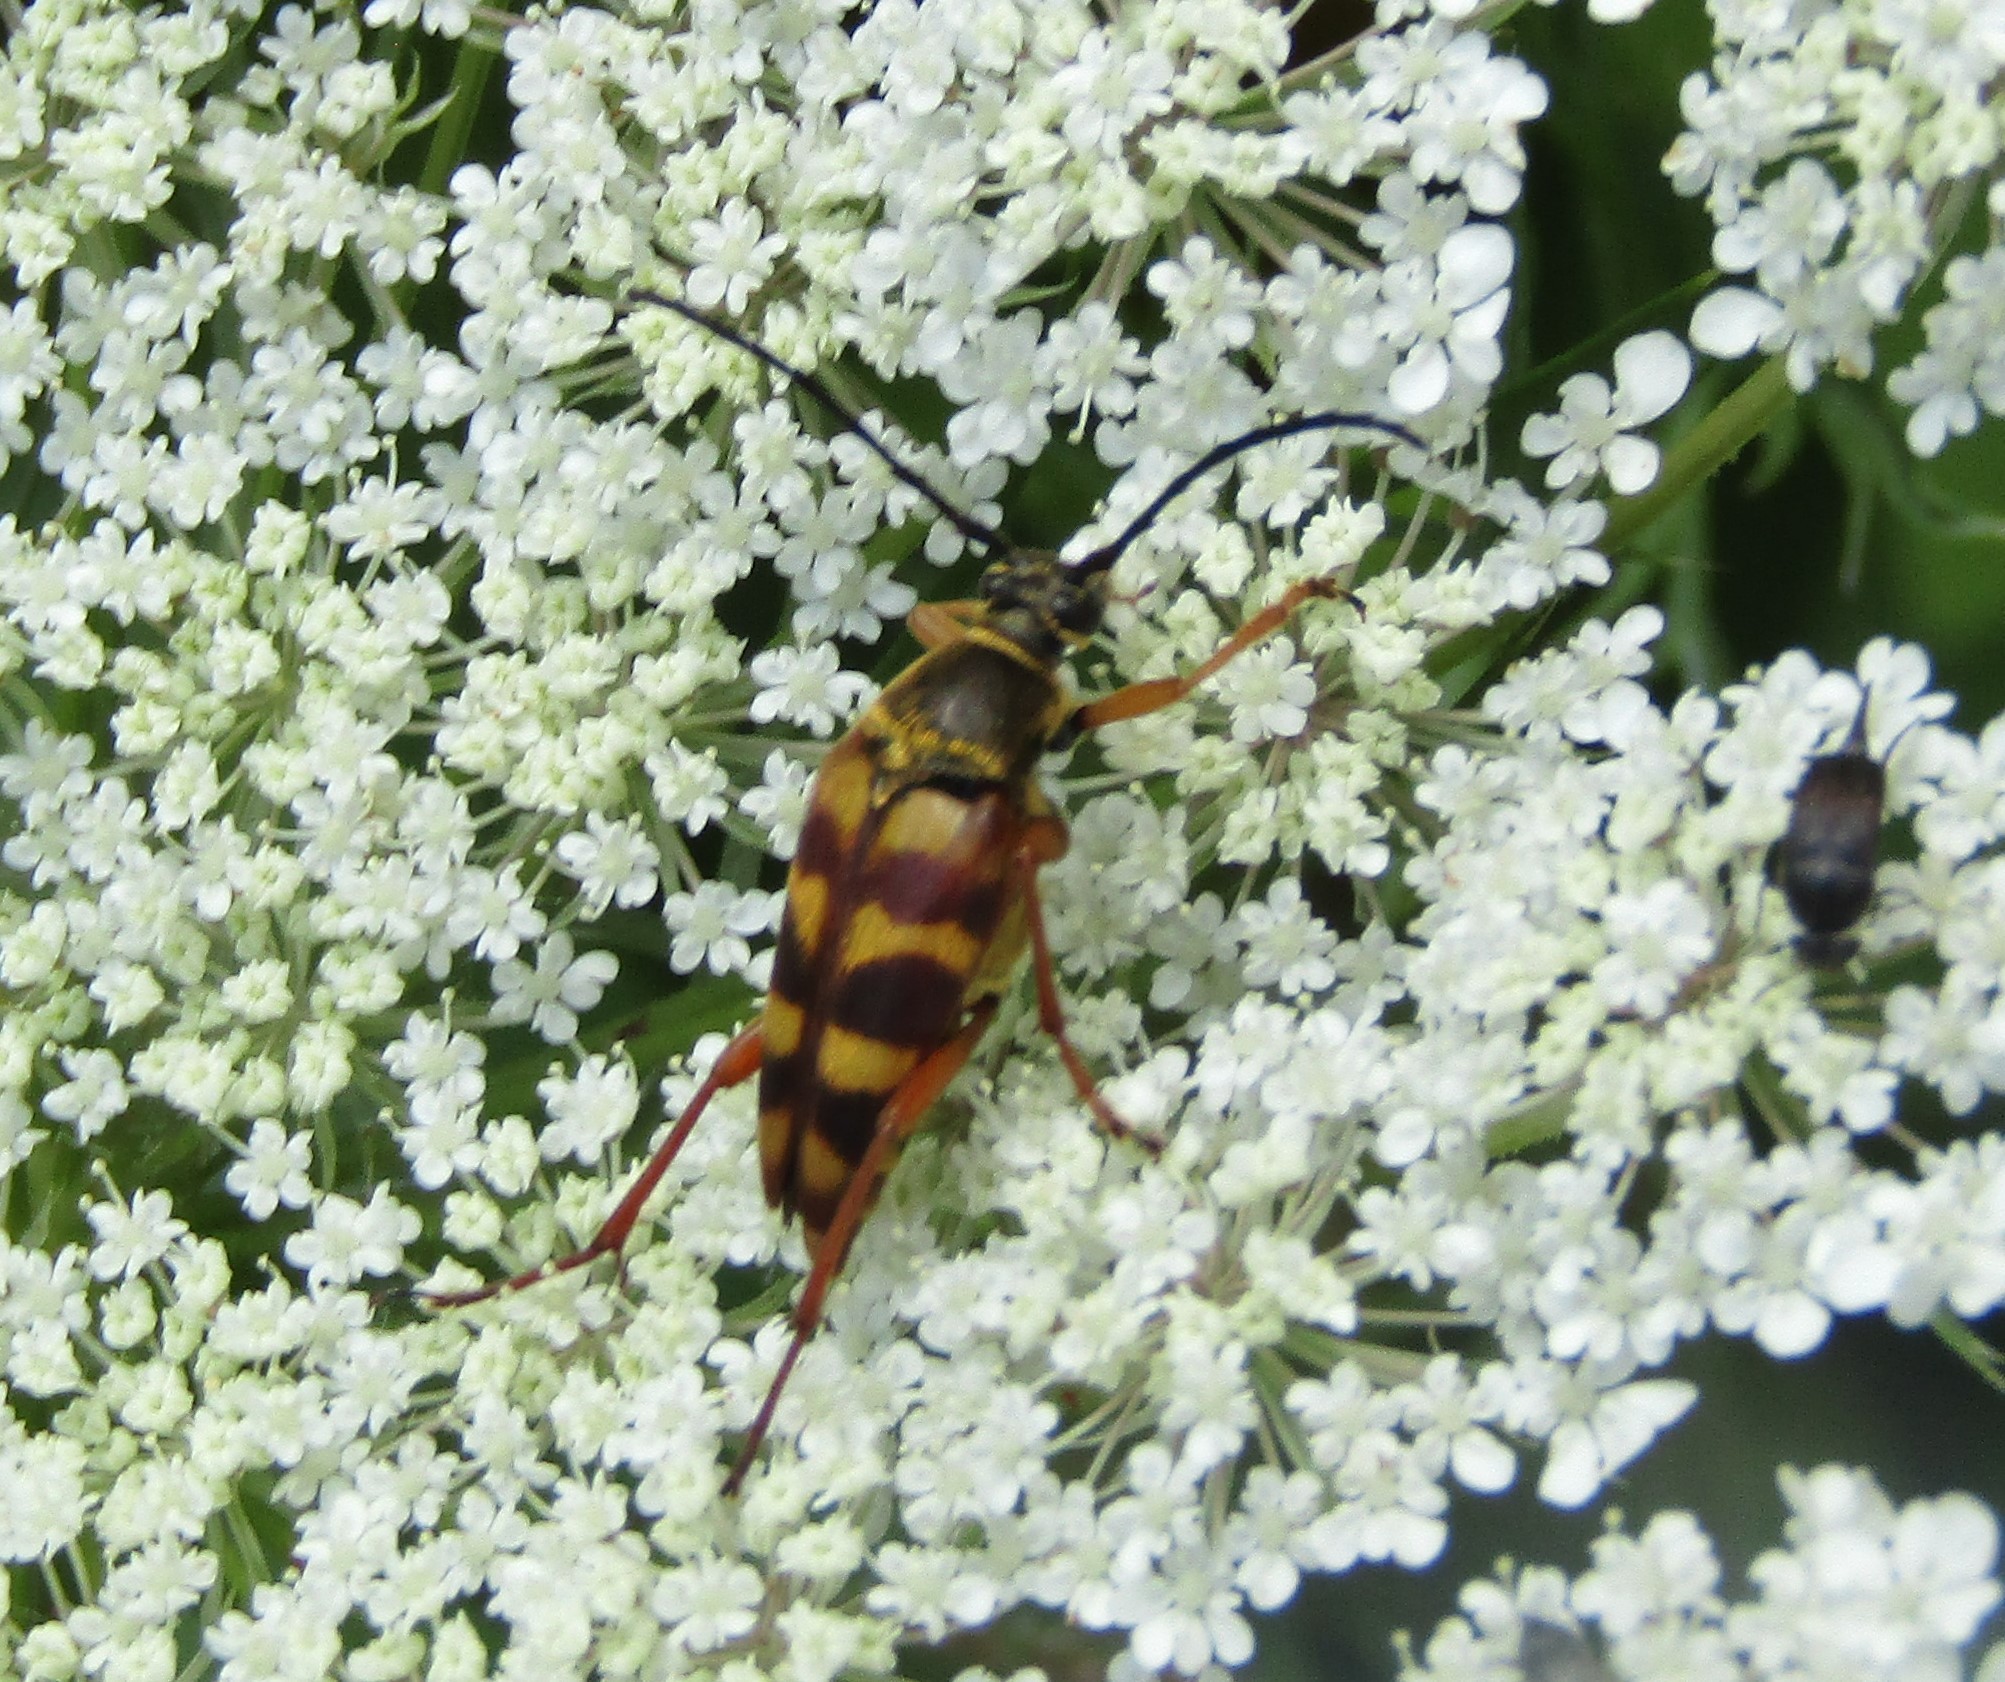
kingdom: Animalia
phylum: Arthropoda
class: Insecta
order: Coleoptera
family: Cerambycidae
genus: Typocerus
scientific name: Typocerus velutinus
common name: Banded longhorn beetle
